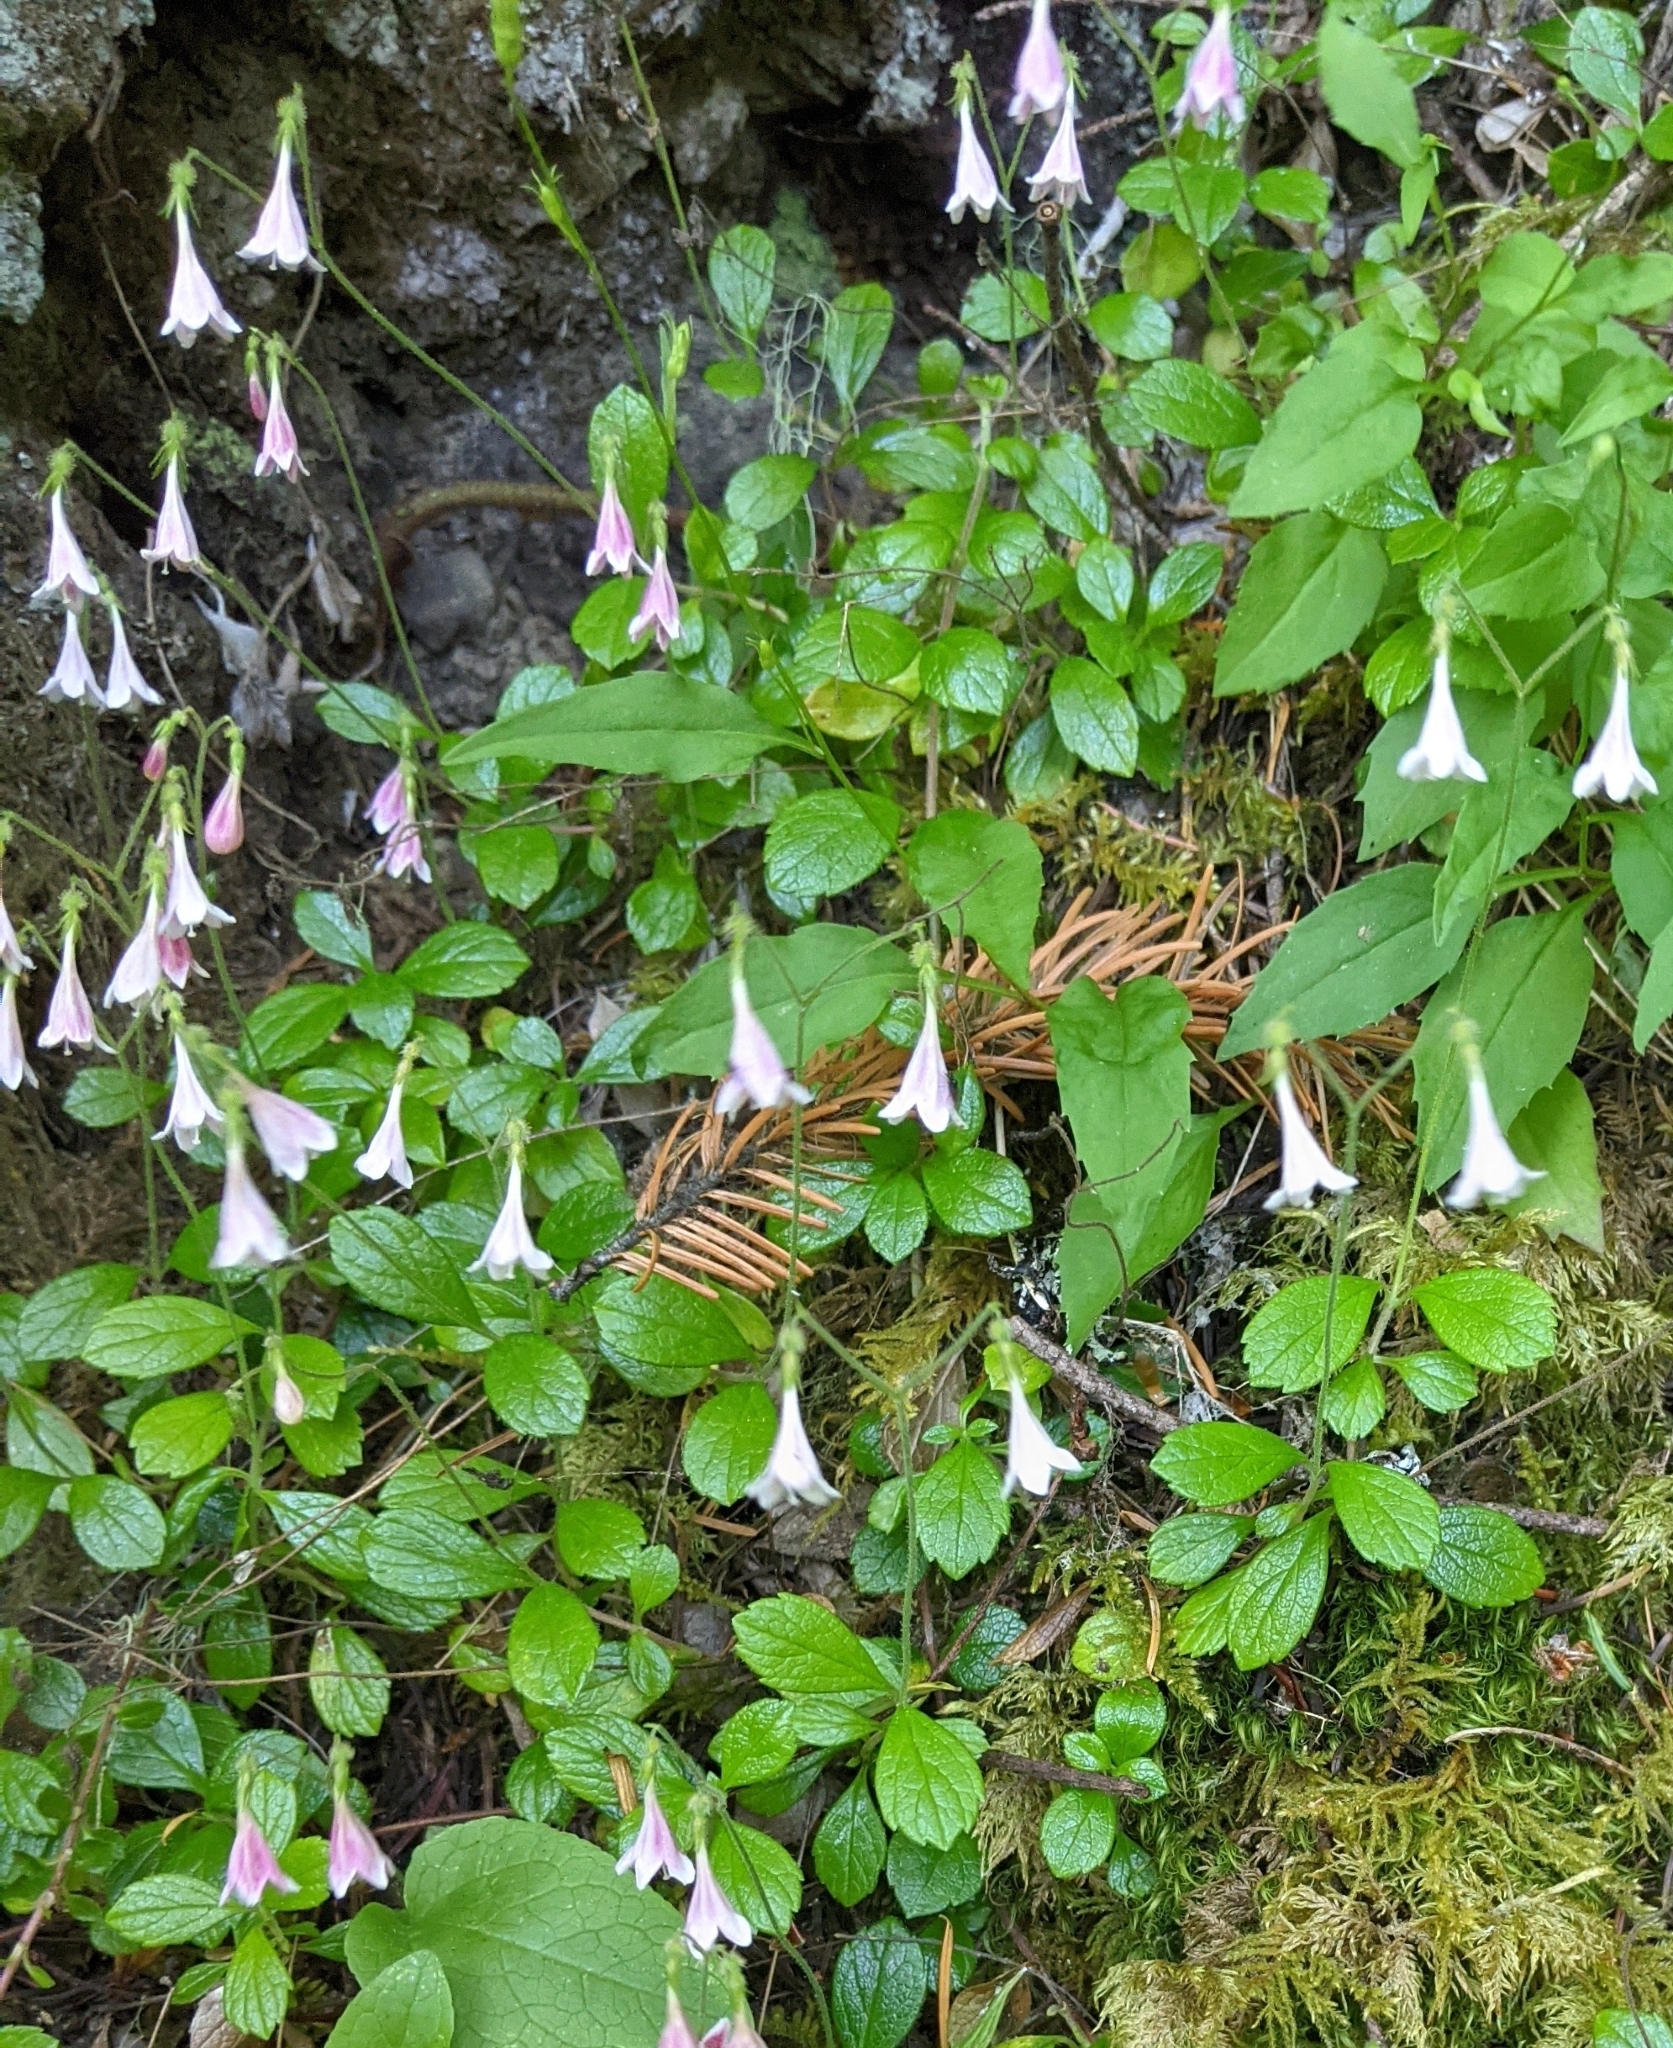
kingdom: Plantae
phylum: Tracheophyta
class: Magnoliopsida
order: Dipsacales
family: Caprifoliaceae
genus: Linnaea
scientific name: Linnaea borealis
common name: Twinflower
